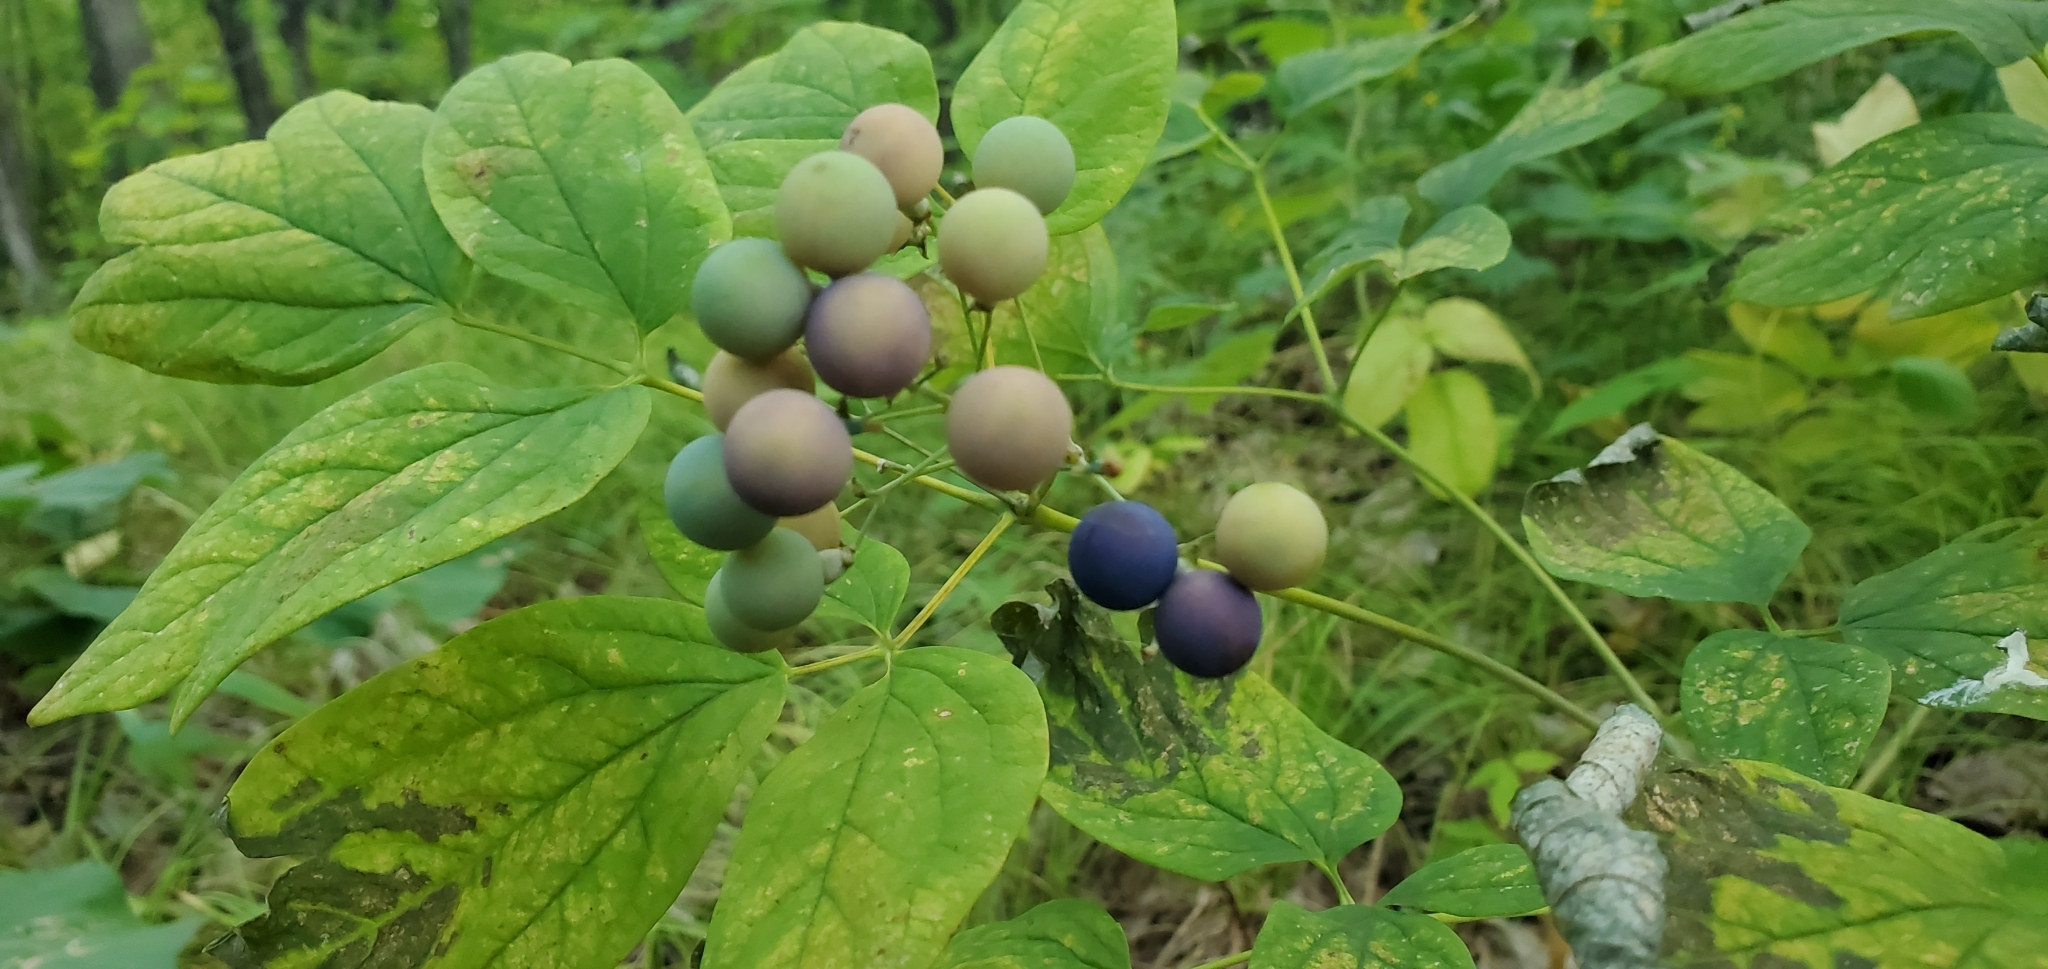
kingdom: Plantae
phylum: Tracheophyta
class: Magnoliopsida
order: Ranunculales
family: Berberidaceae
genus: Caulophyllum
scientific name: Caulophyllum thalictroides
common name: Blue cohosh
